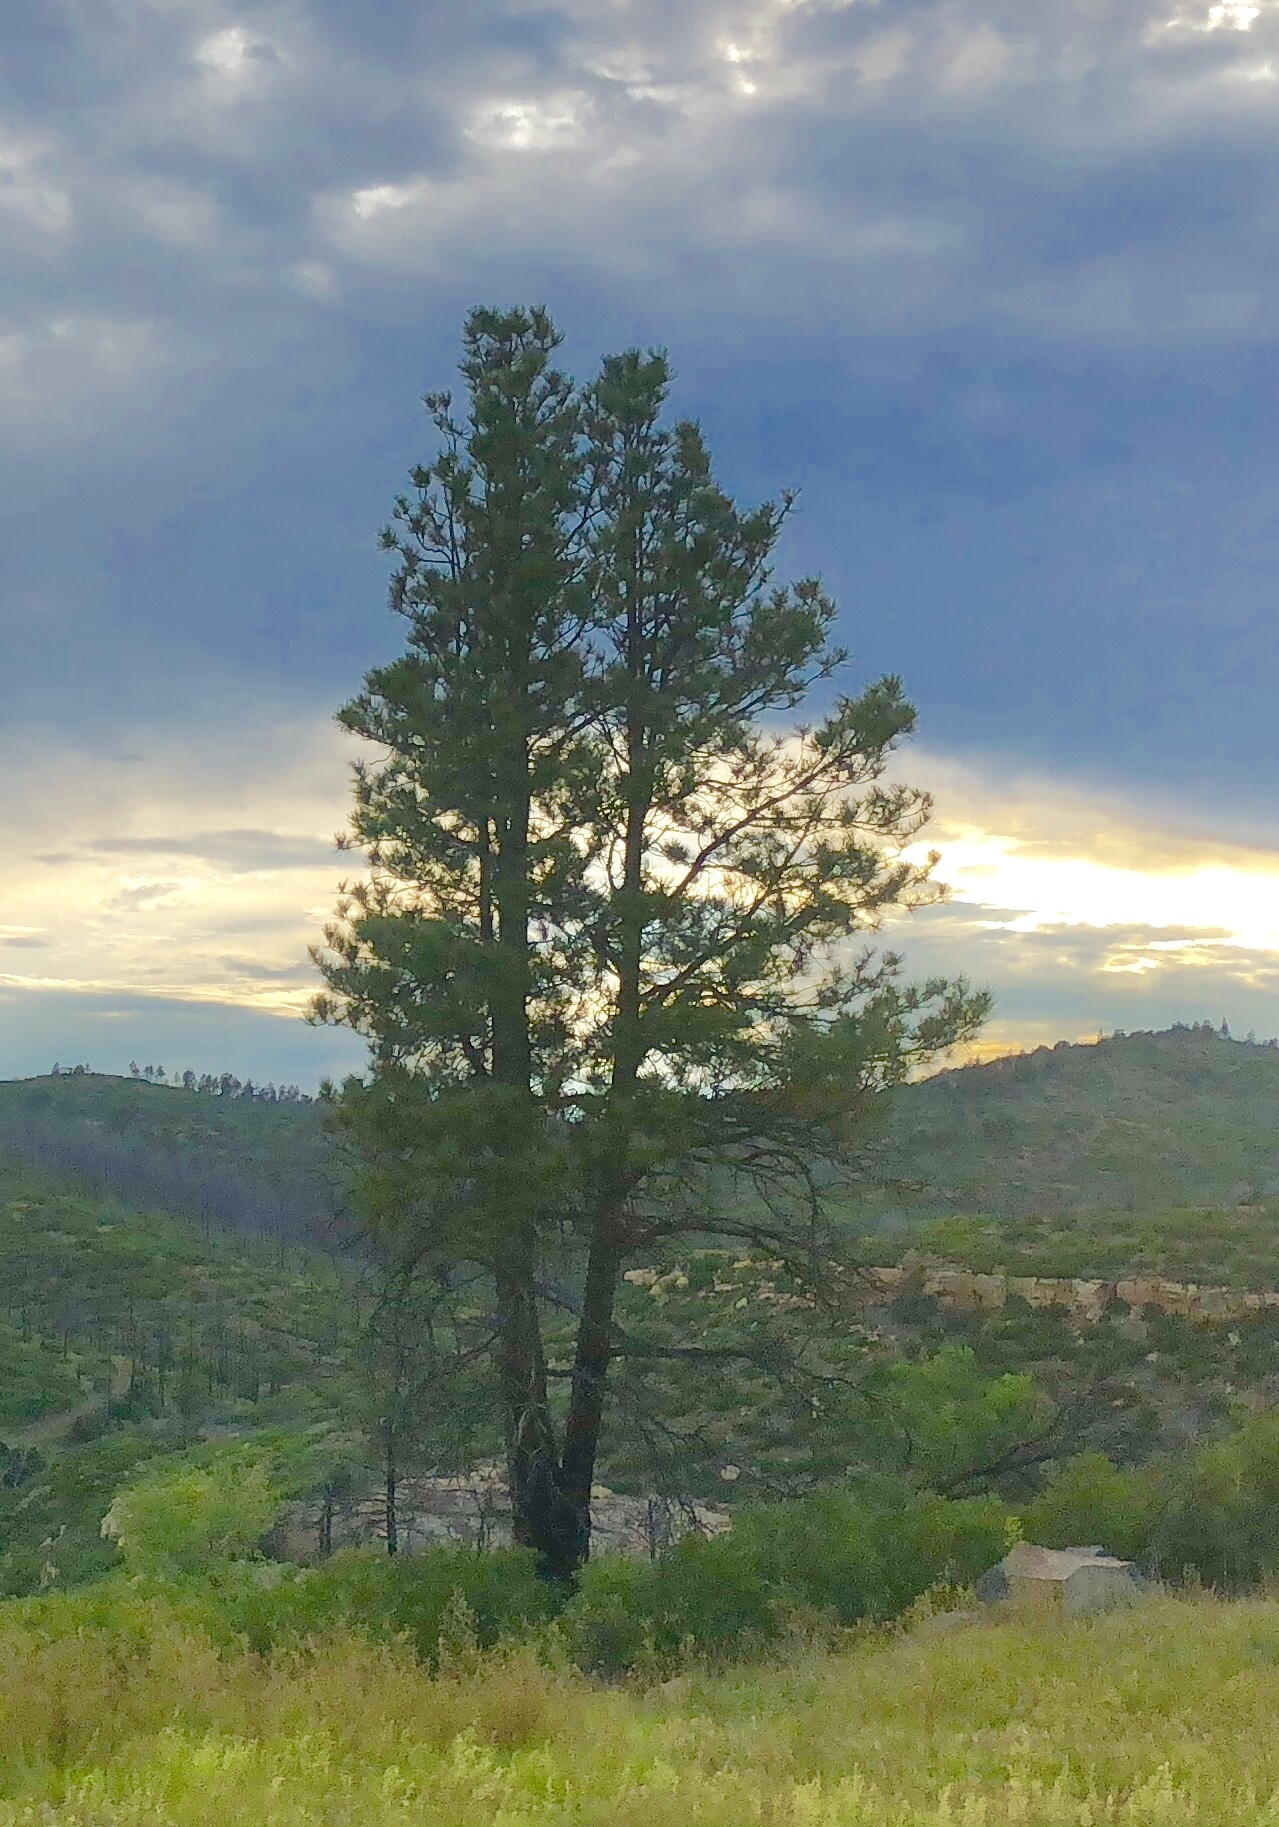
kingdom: Plantae
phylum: Tracheophyta
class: Pinopsida
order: Pinales
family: Pinaceae
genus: Pinus
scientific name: Pinus ponderosa
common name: Western yellow-pine
